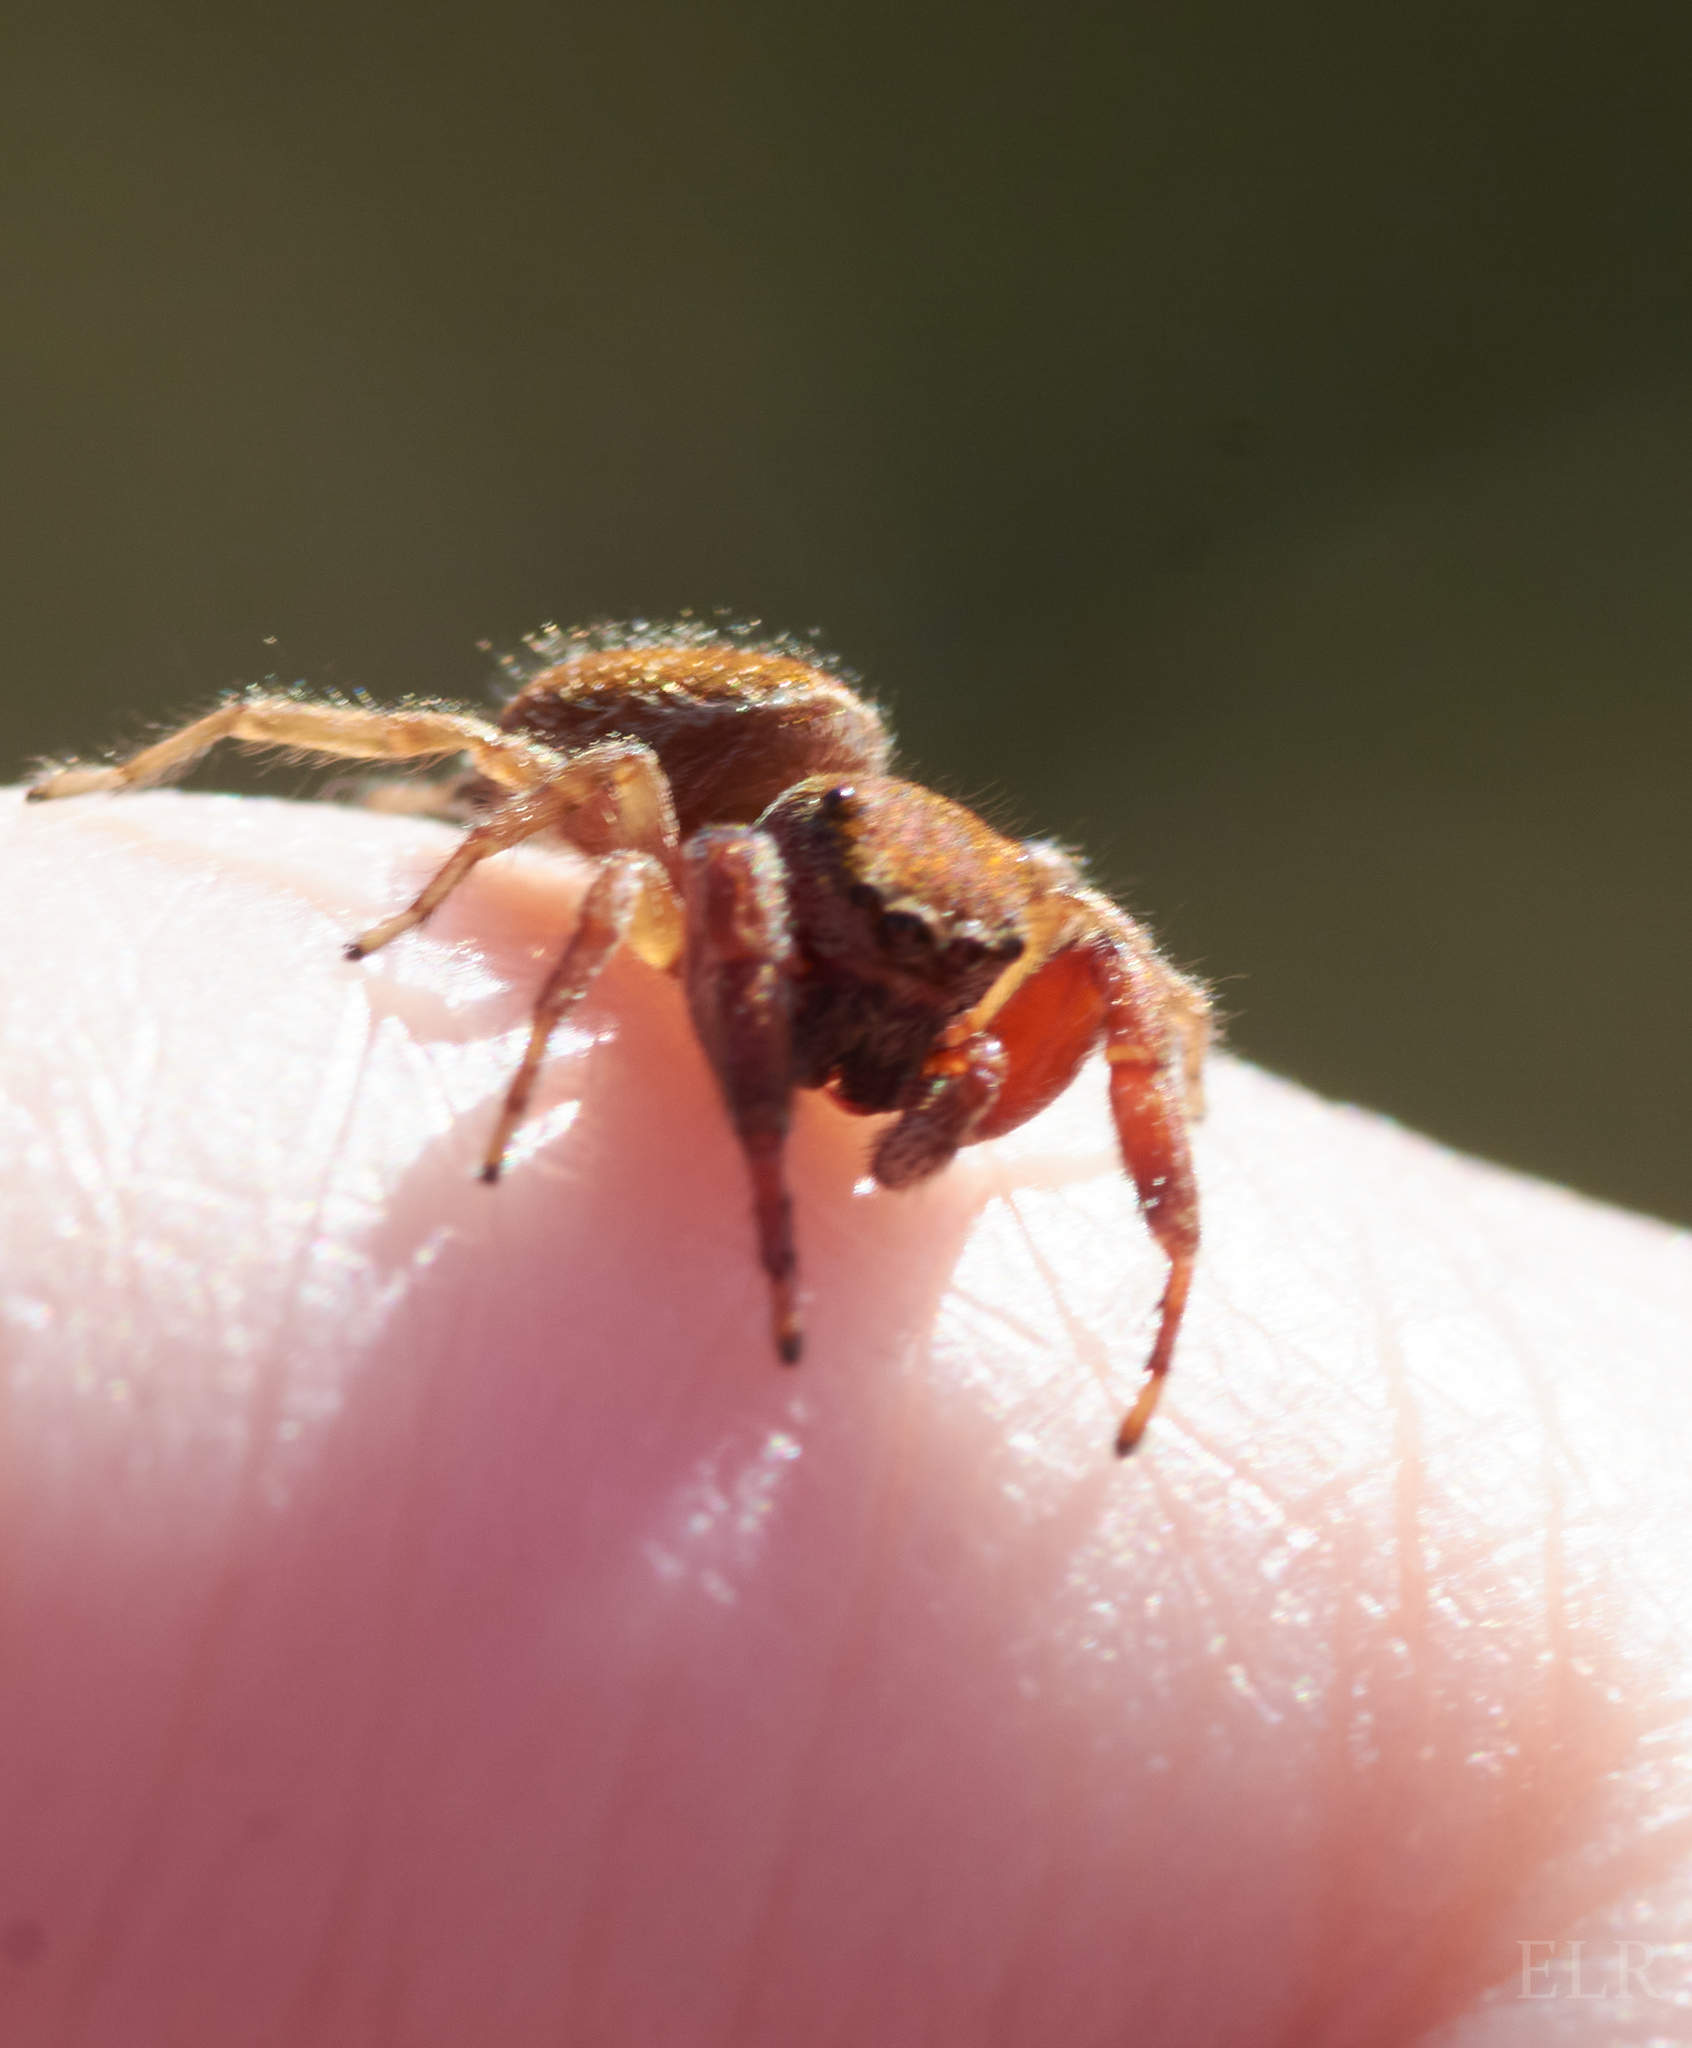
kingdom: Animalia
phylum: Arthropoda
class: Arachnida
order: Araneae
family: Salticidae
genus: Ghelna
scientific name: Ghelna canadensis
